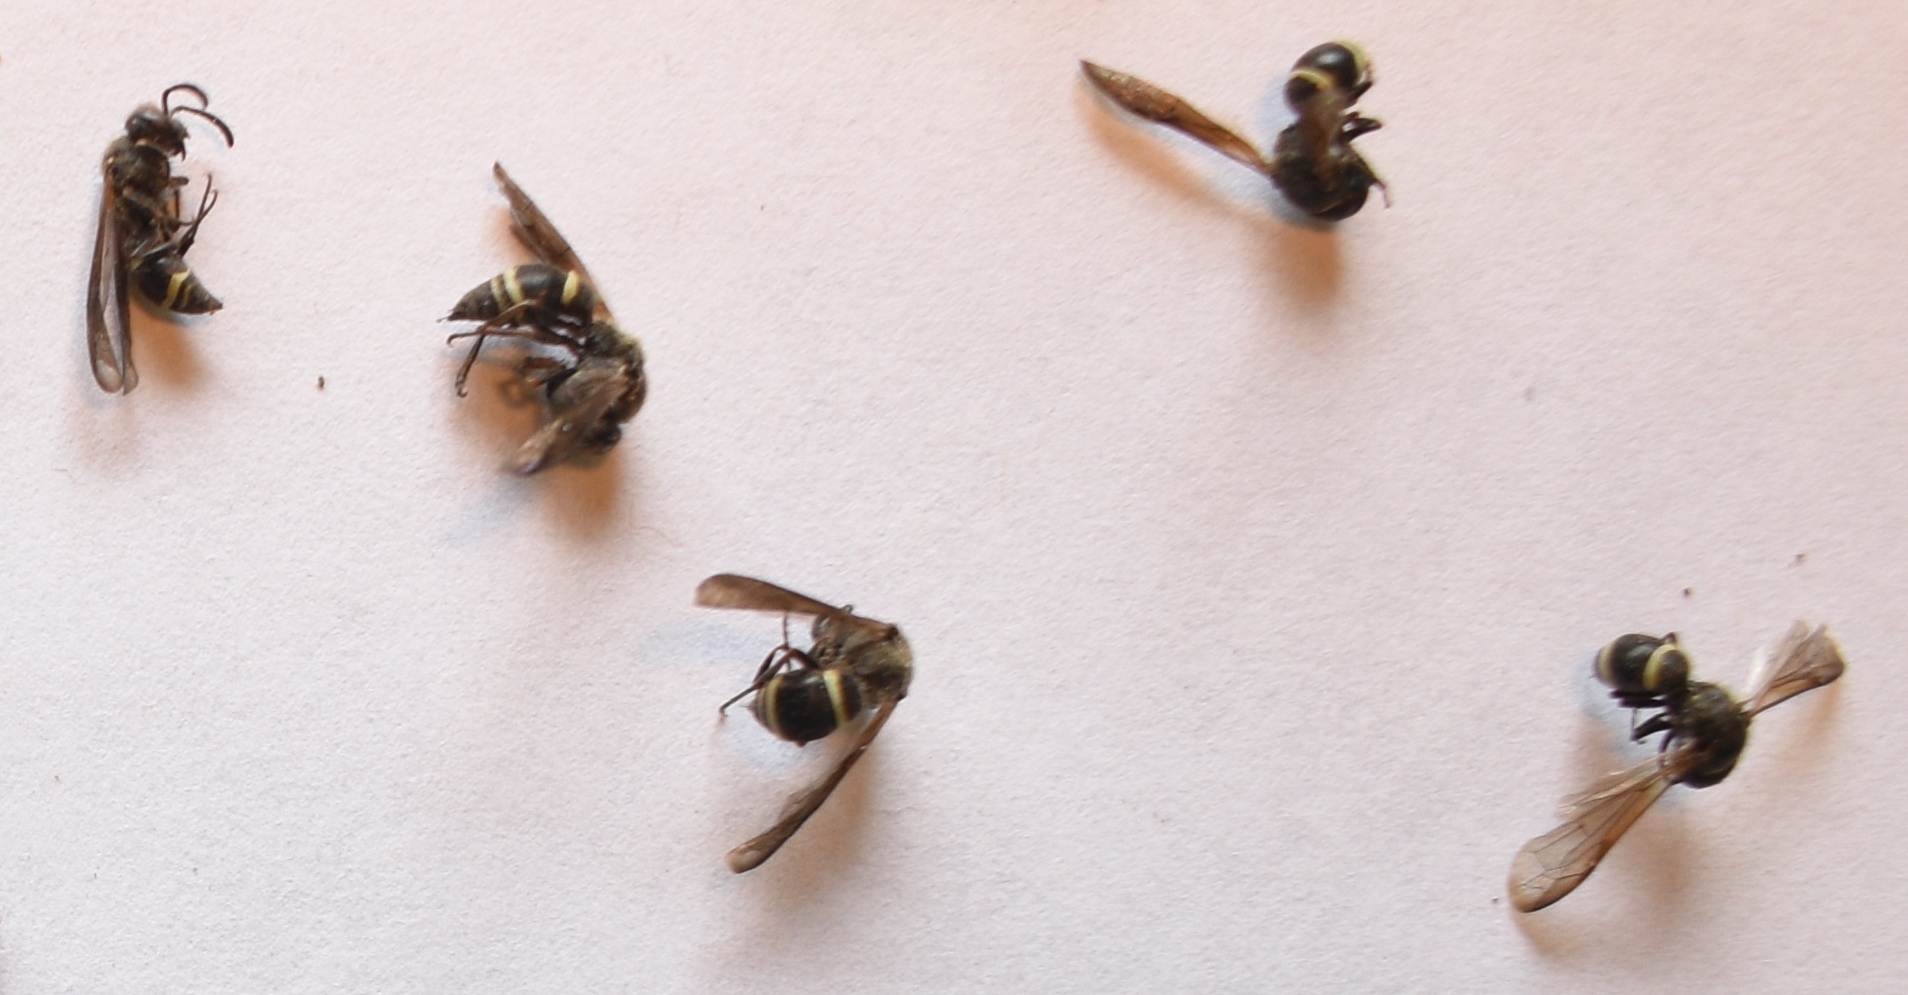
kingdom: Animalia
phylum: Arthropoda
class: Insecta
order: Hymenoptera
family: Vespidae
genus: Ancistrocerus
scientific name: Ancistrocerus
